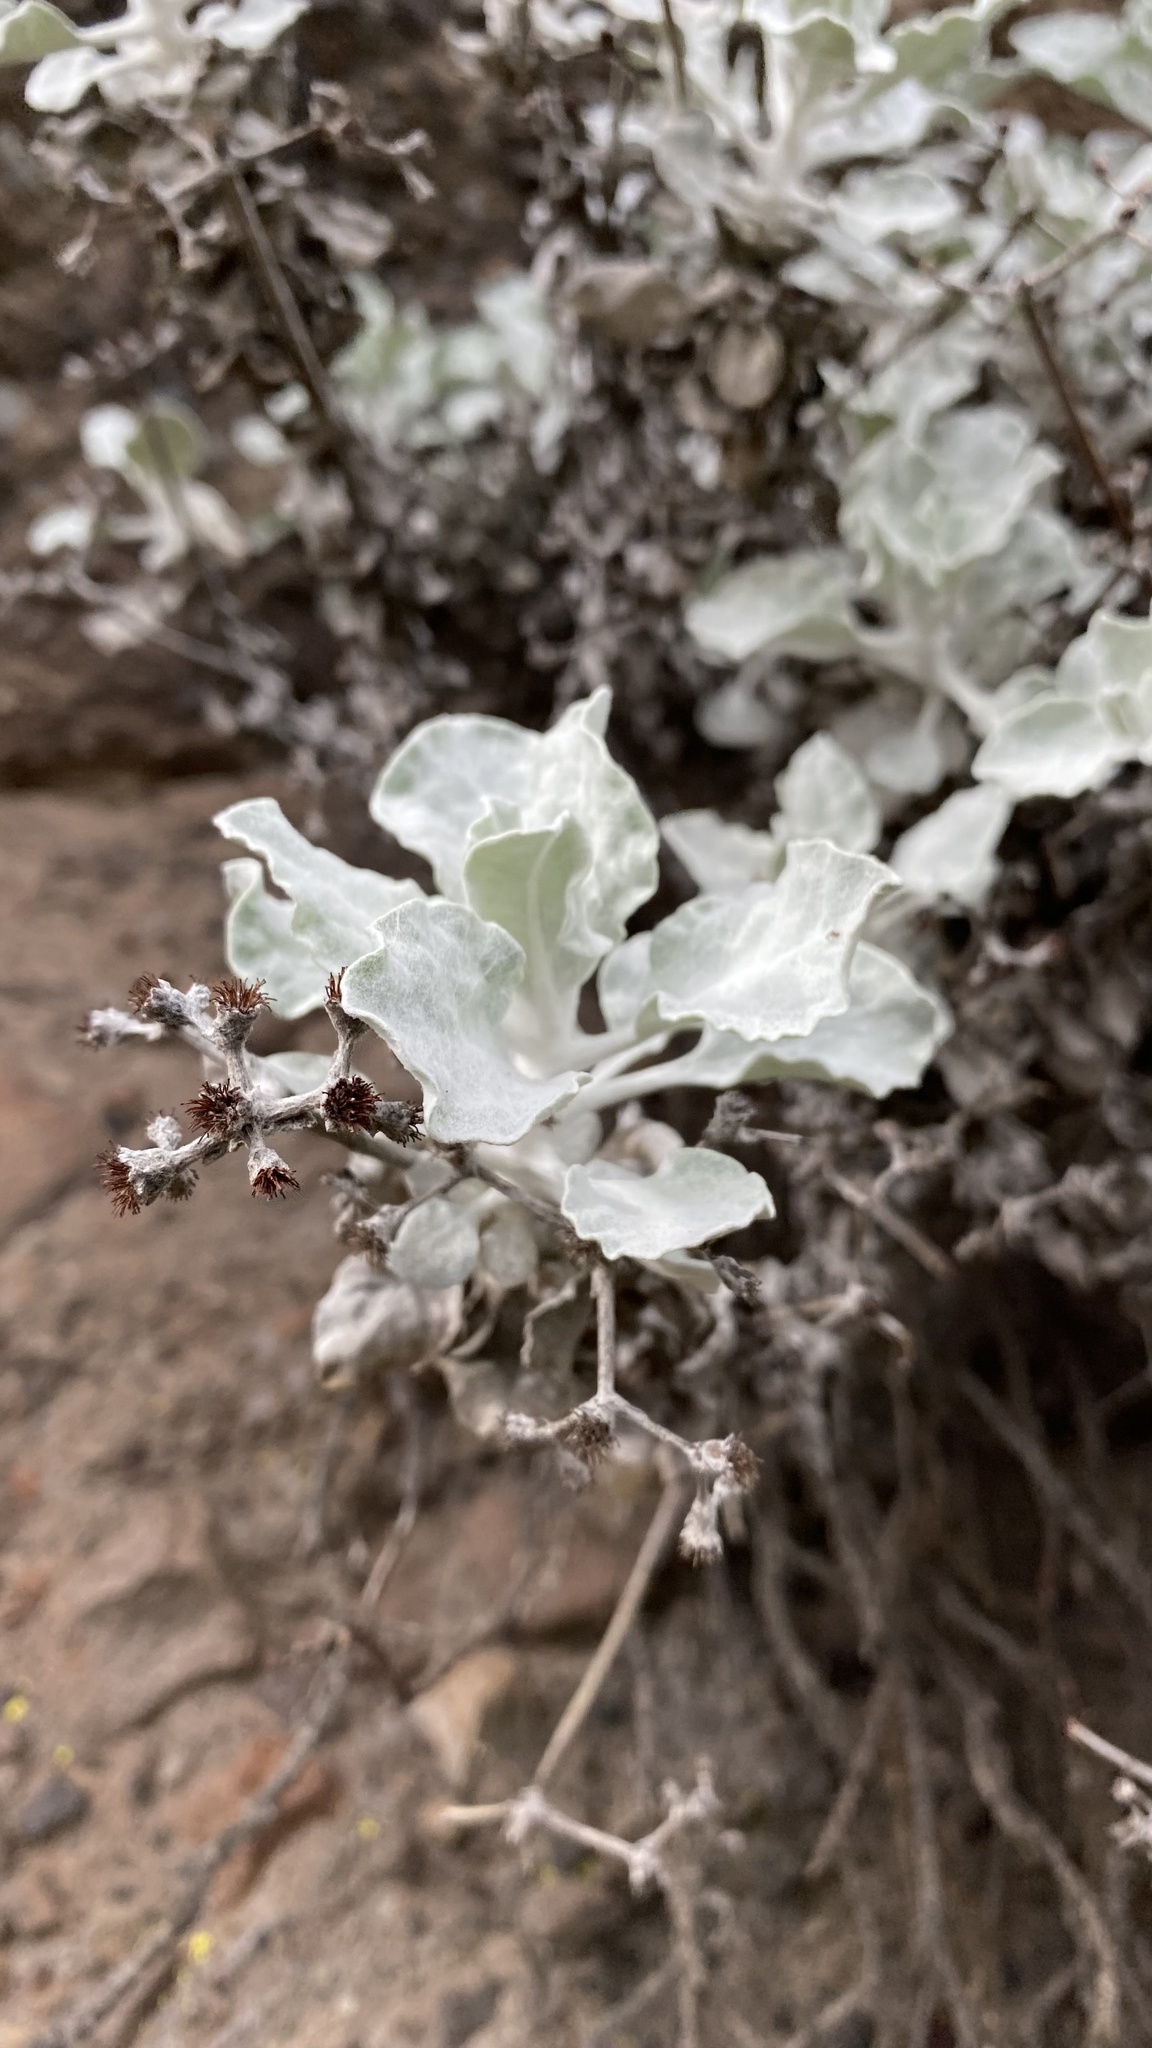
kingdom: Plantae
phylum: Tracheophyta
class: Magnoliopsida
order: Caryophyllales
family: Polygonaceae
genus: Eriogonum
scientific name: Eriogonum crocatum
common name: Saffron wild buckwheat
